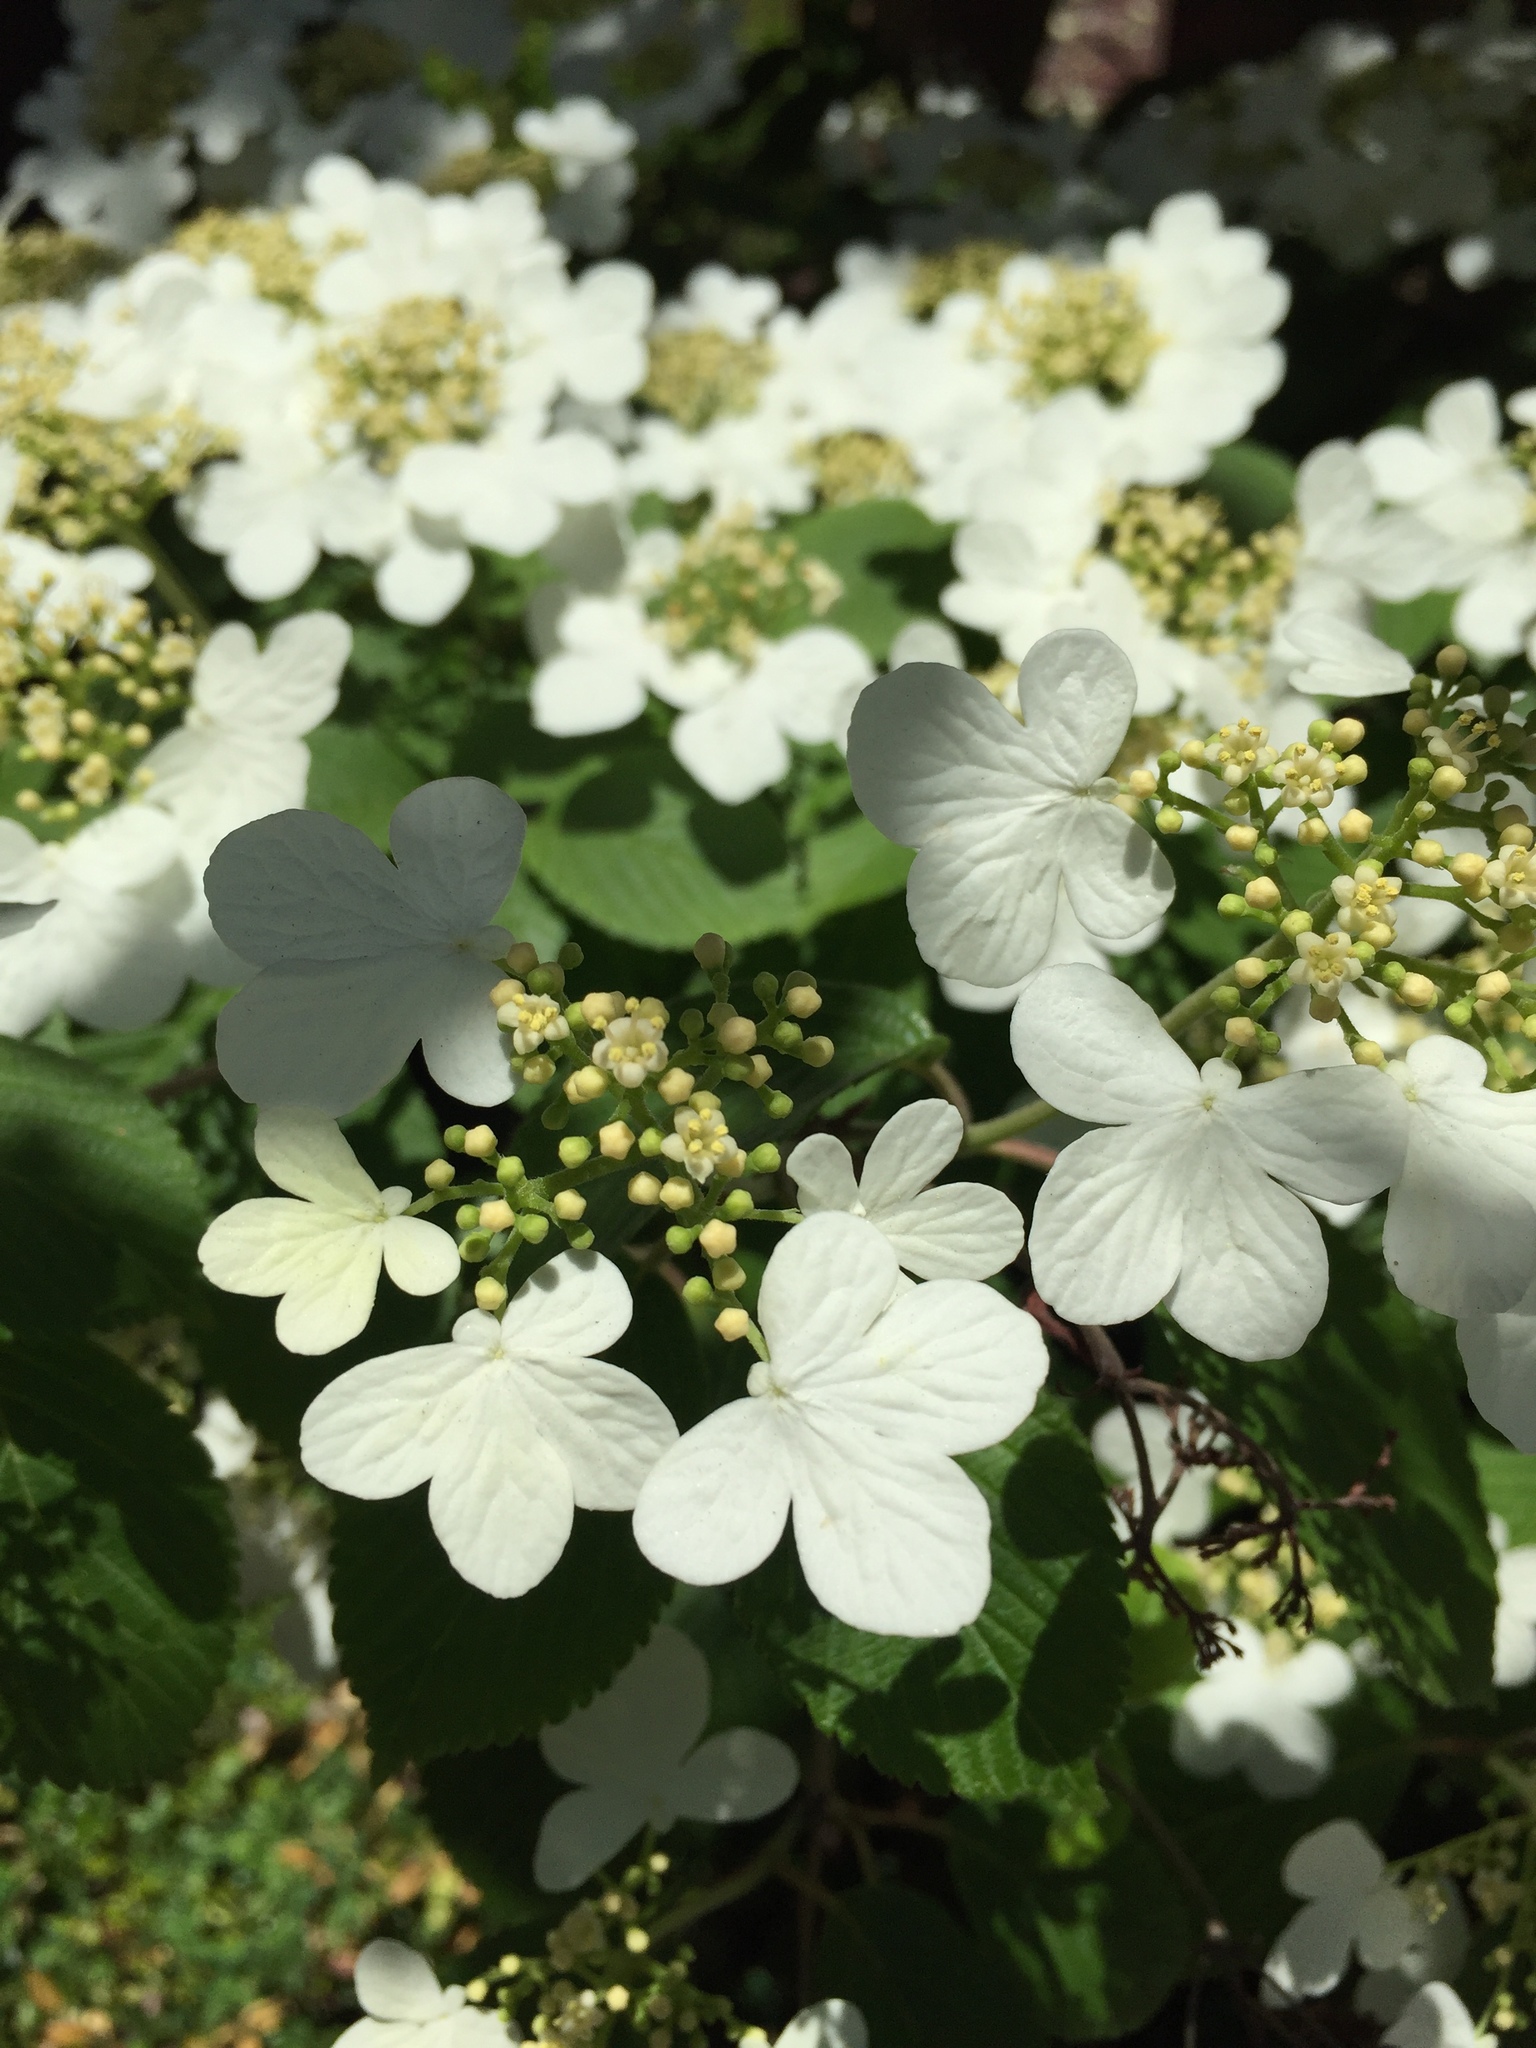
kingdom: Plantae
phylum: Tracheophyta
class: Magnoliopsida
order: Dipsacales
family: Viburnaceae
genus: Viburnum
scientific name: Viburnum opulus
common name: Guelder-rose
